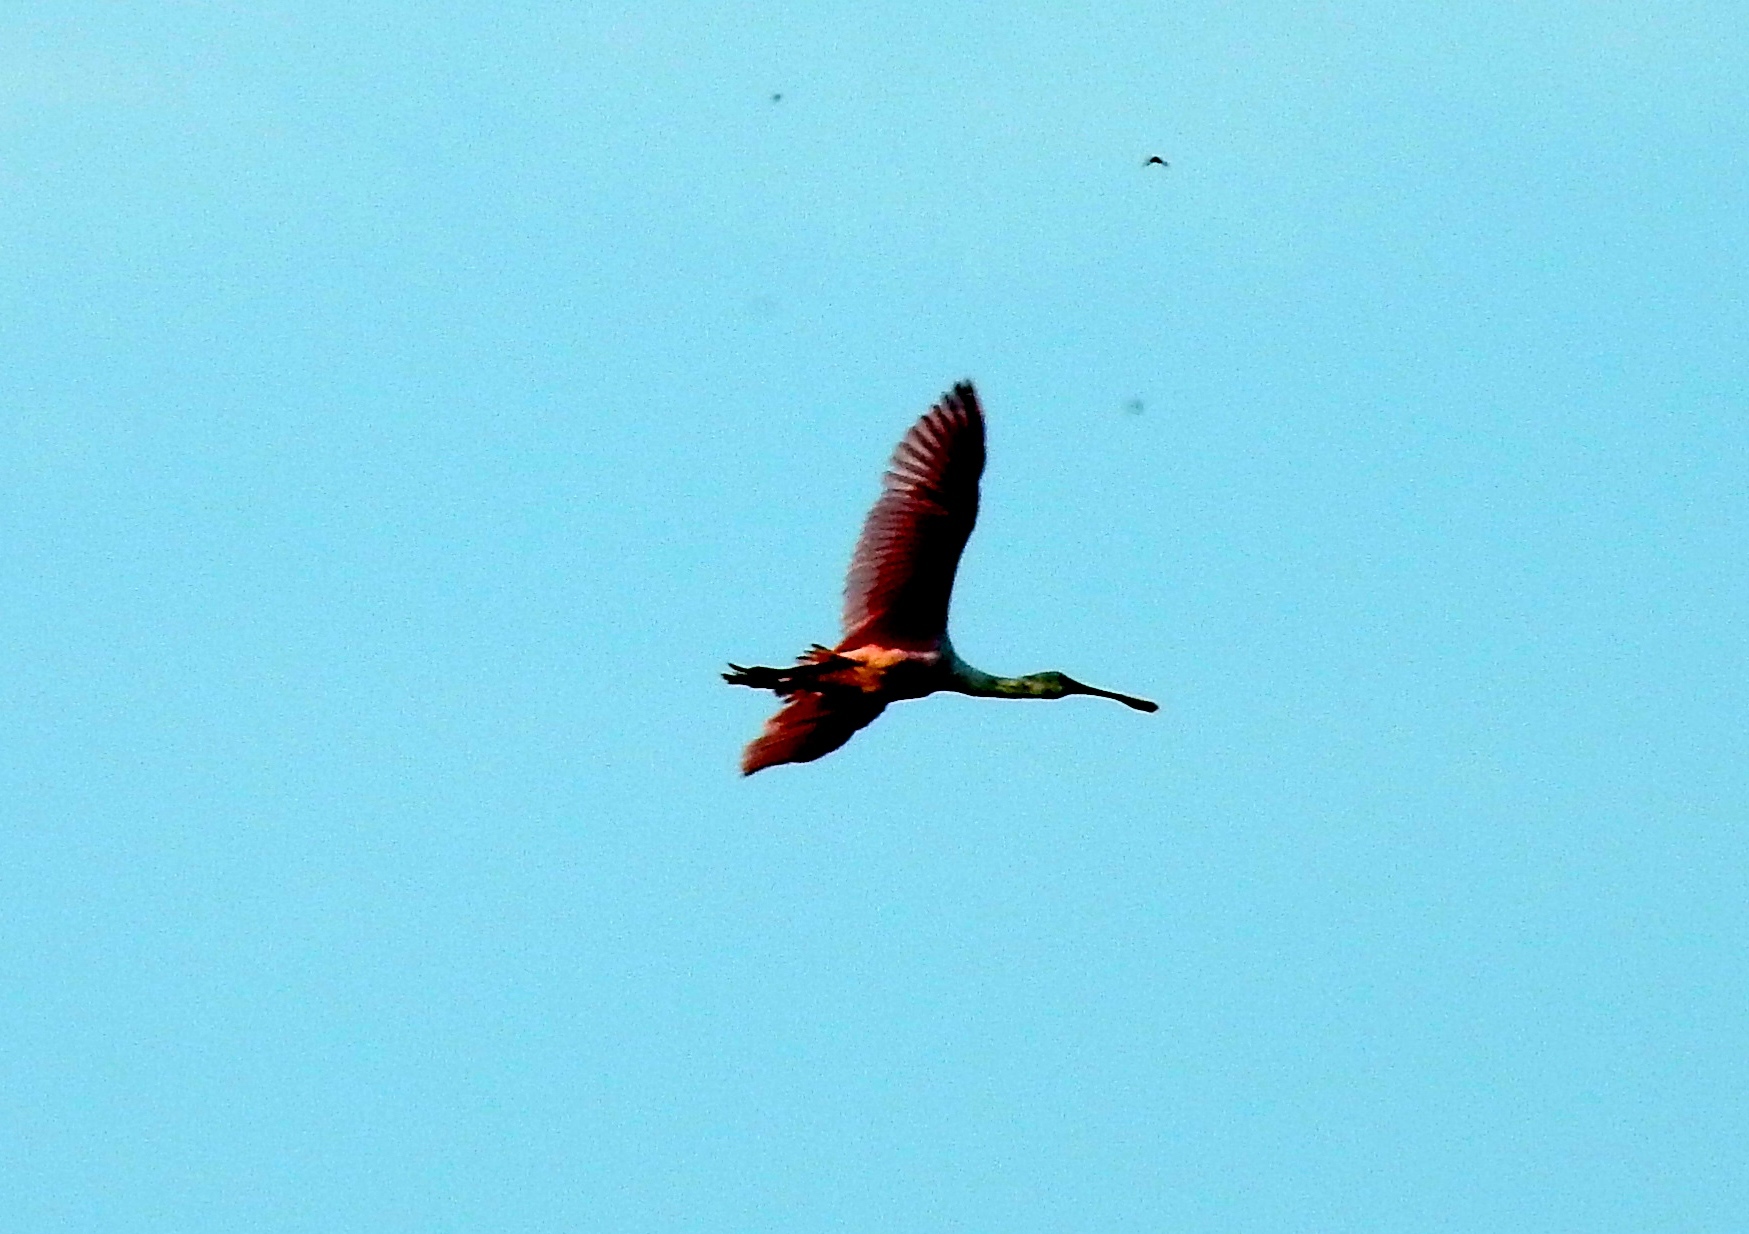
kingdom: Animalia
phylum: Chordata
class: Aves
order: Pelecaniformes
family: Threskiornithidae
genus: Platalea
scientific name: Platalea ajaja
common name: Roseate spoonbill
